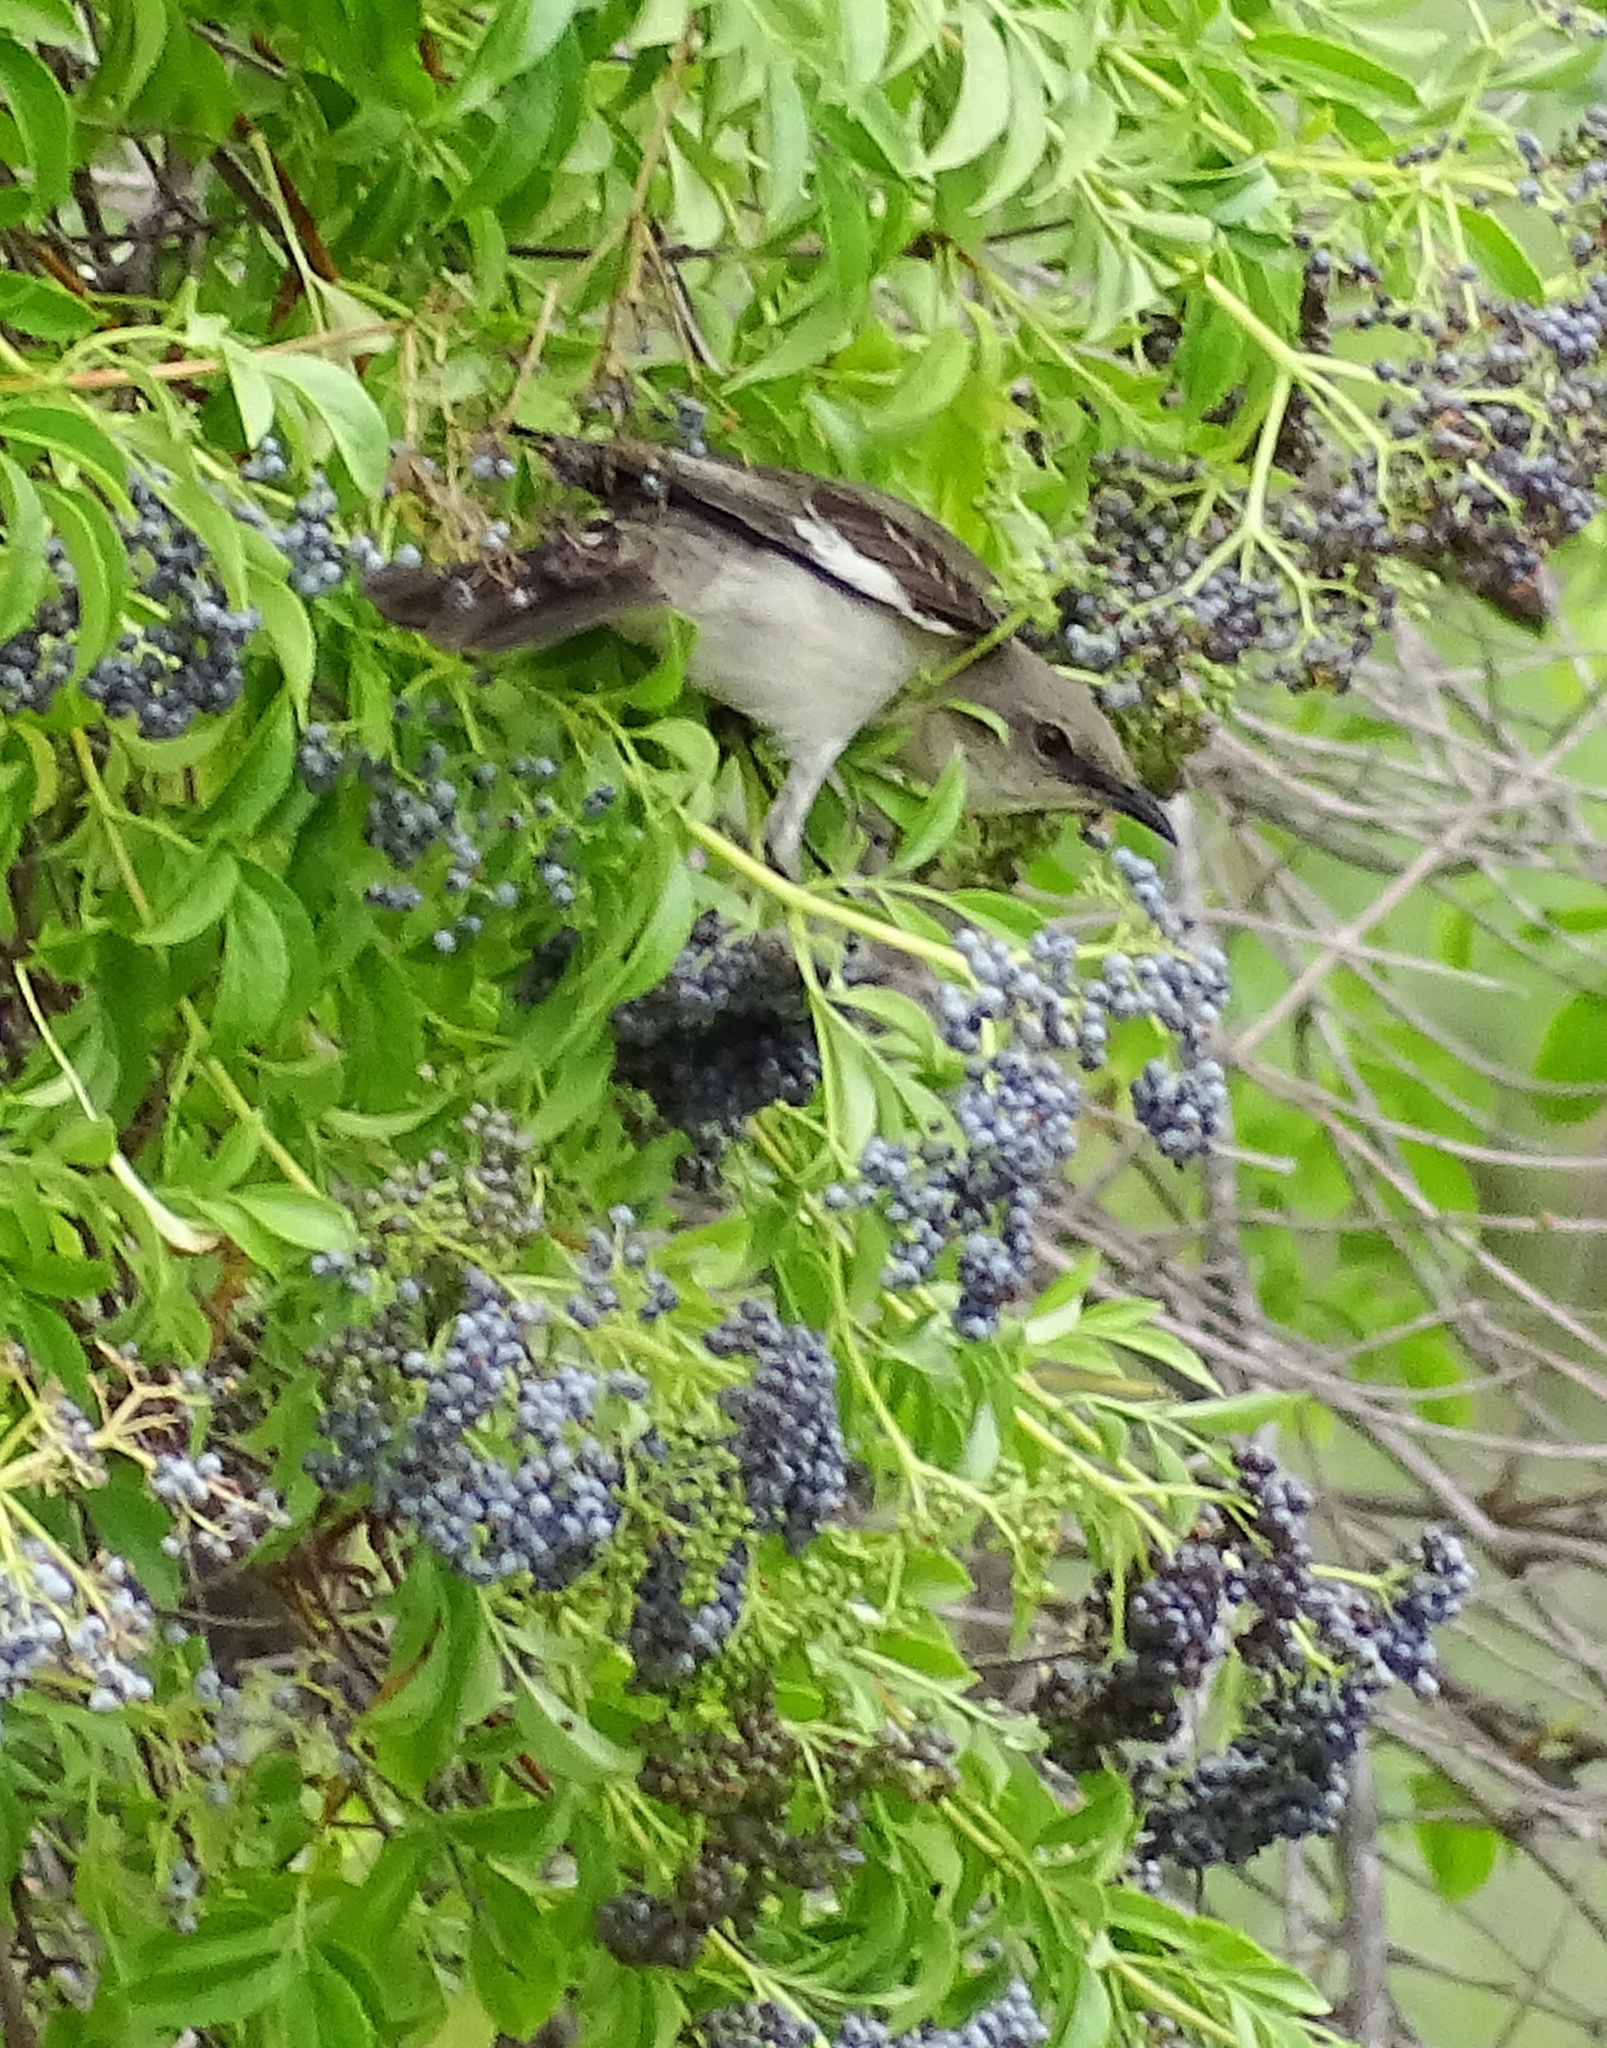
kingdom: Animalia
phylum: Chordata
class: Aves
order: Passeriformes
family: Mimidae
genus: Mimus
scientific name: Mimus polyglottos
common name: Northern mockingbird
